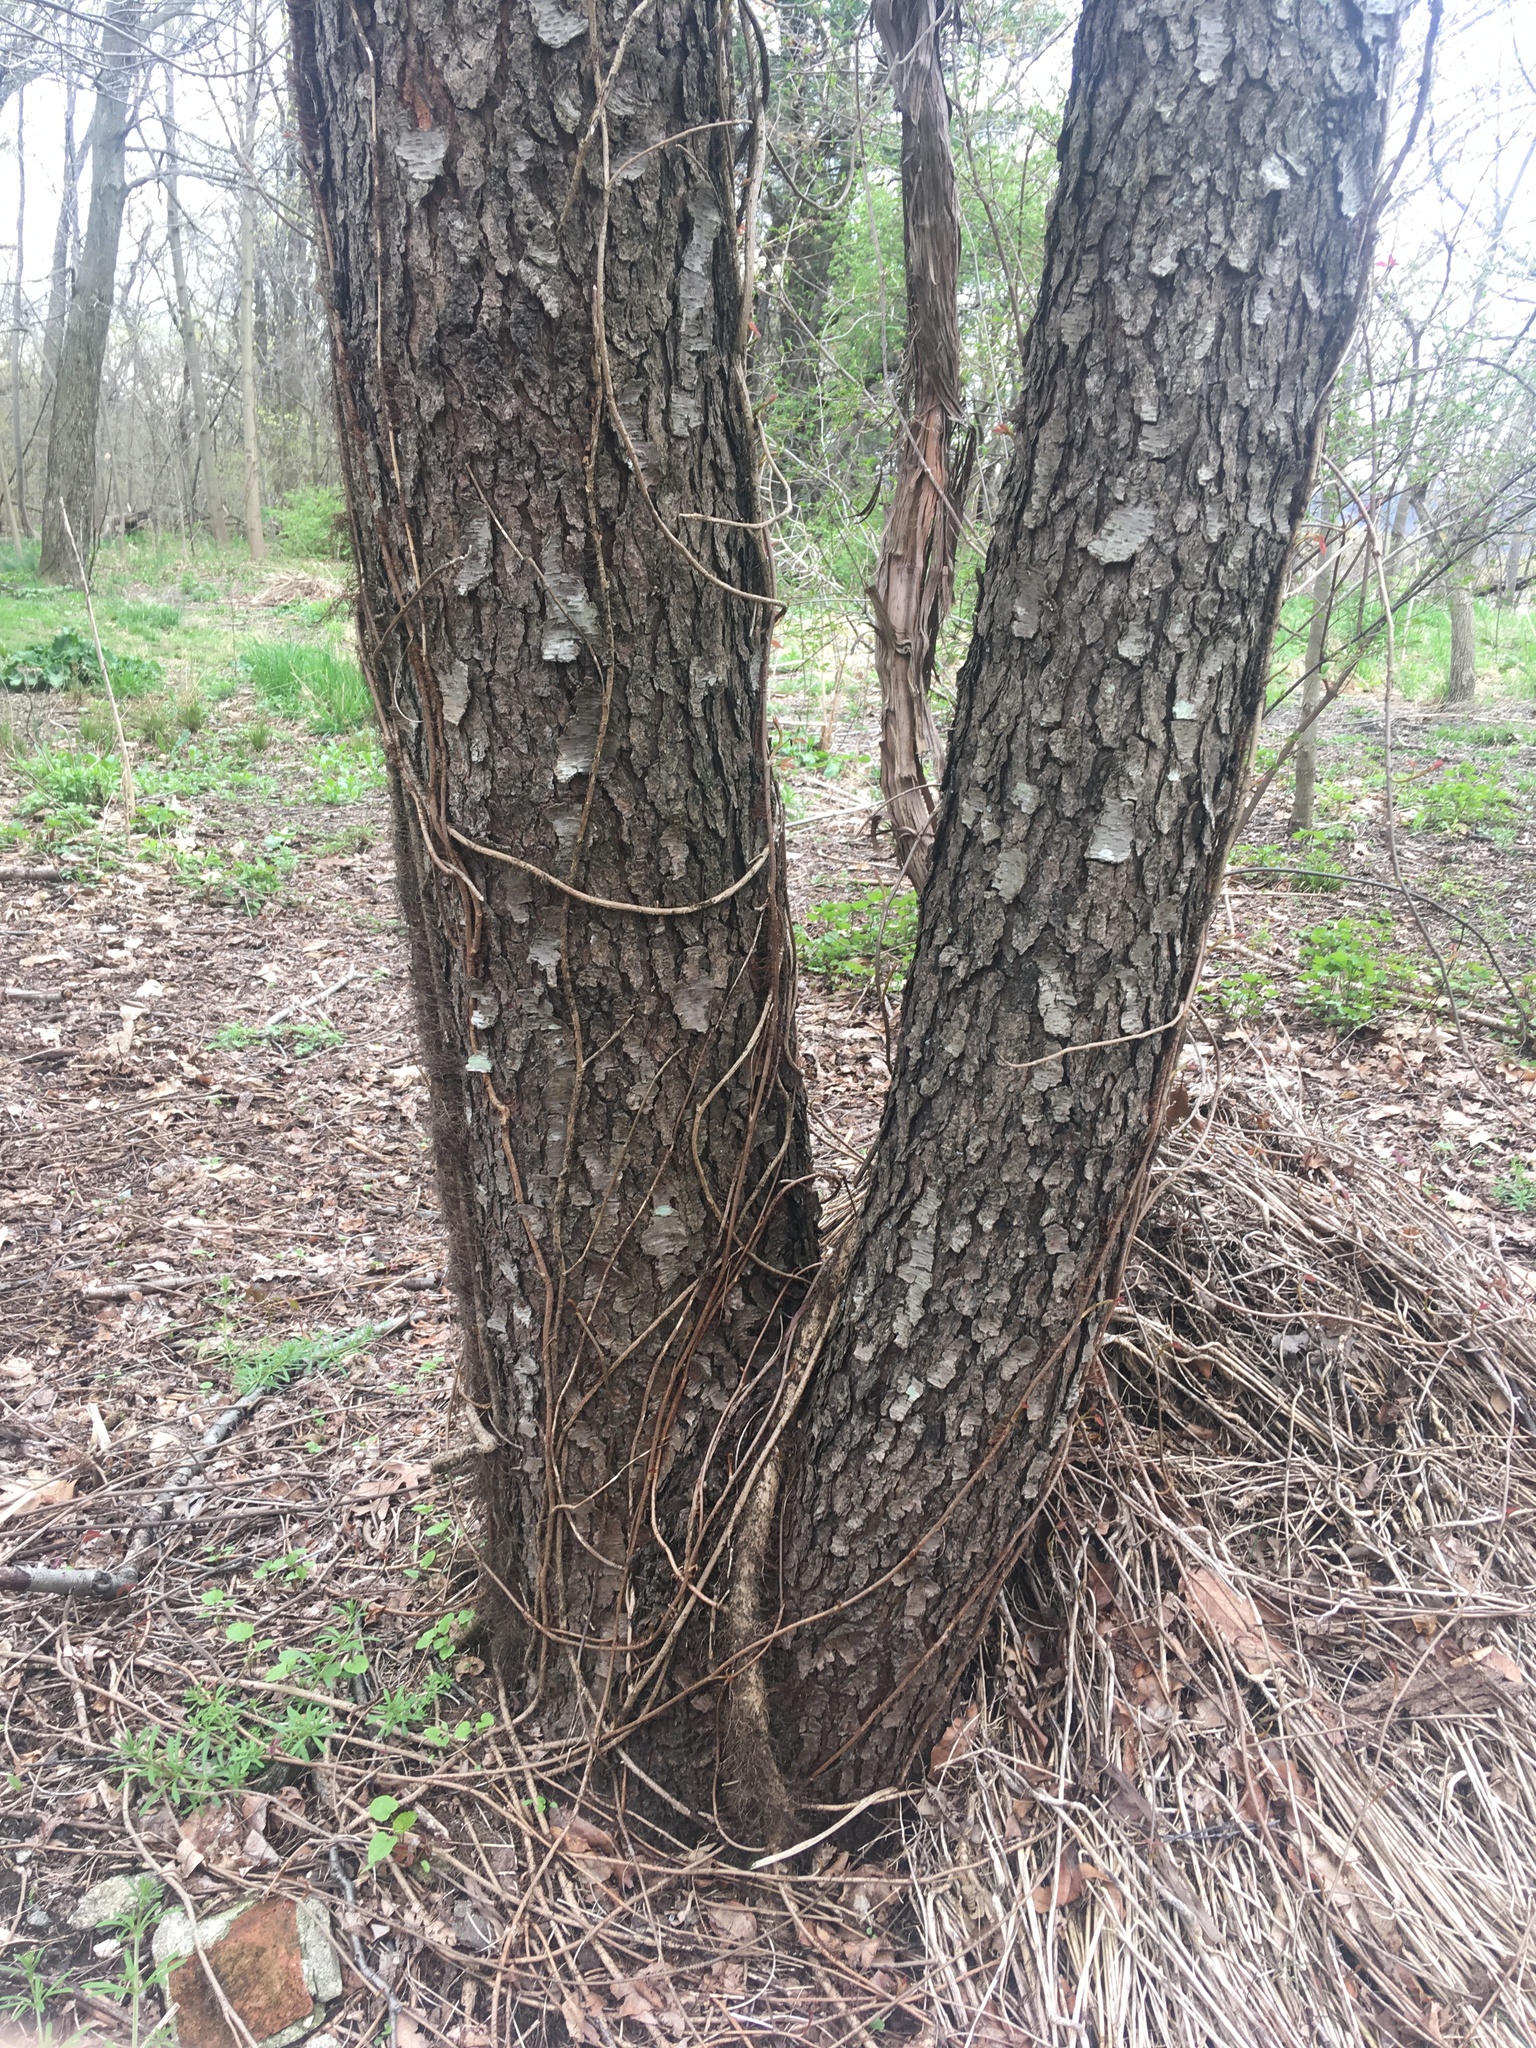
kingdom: Plantae
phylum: Tracheophyta
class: Magnoliopsida
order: Rosales
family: Rosaceae
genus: Prunus
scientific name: Prunus serotina
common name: Black cherry
